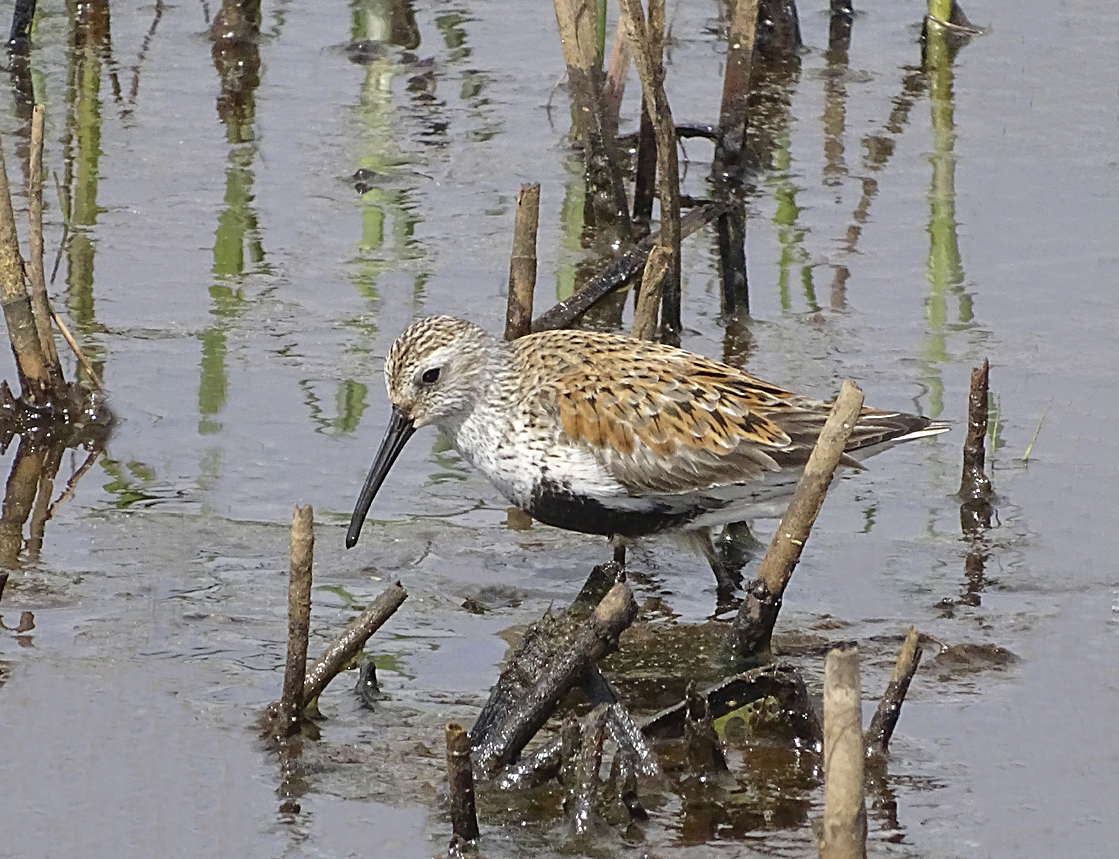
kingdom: Animalia
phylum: Chordata
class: Aves
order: Charadriiformes
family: Scolopacidae
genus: Calidris
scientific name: Calidris alpina
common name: Dunlin
